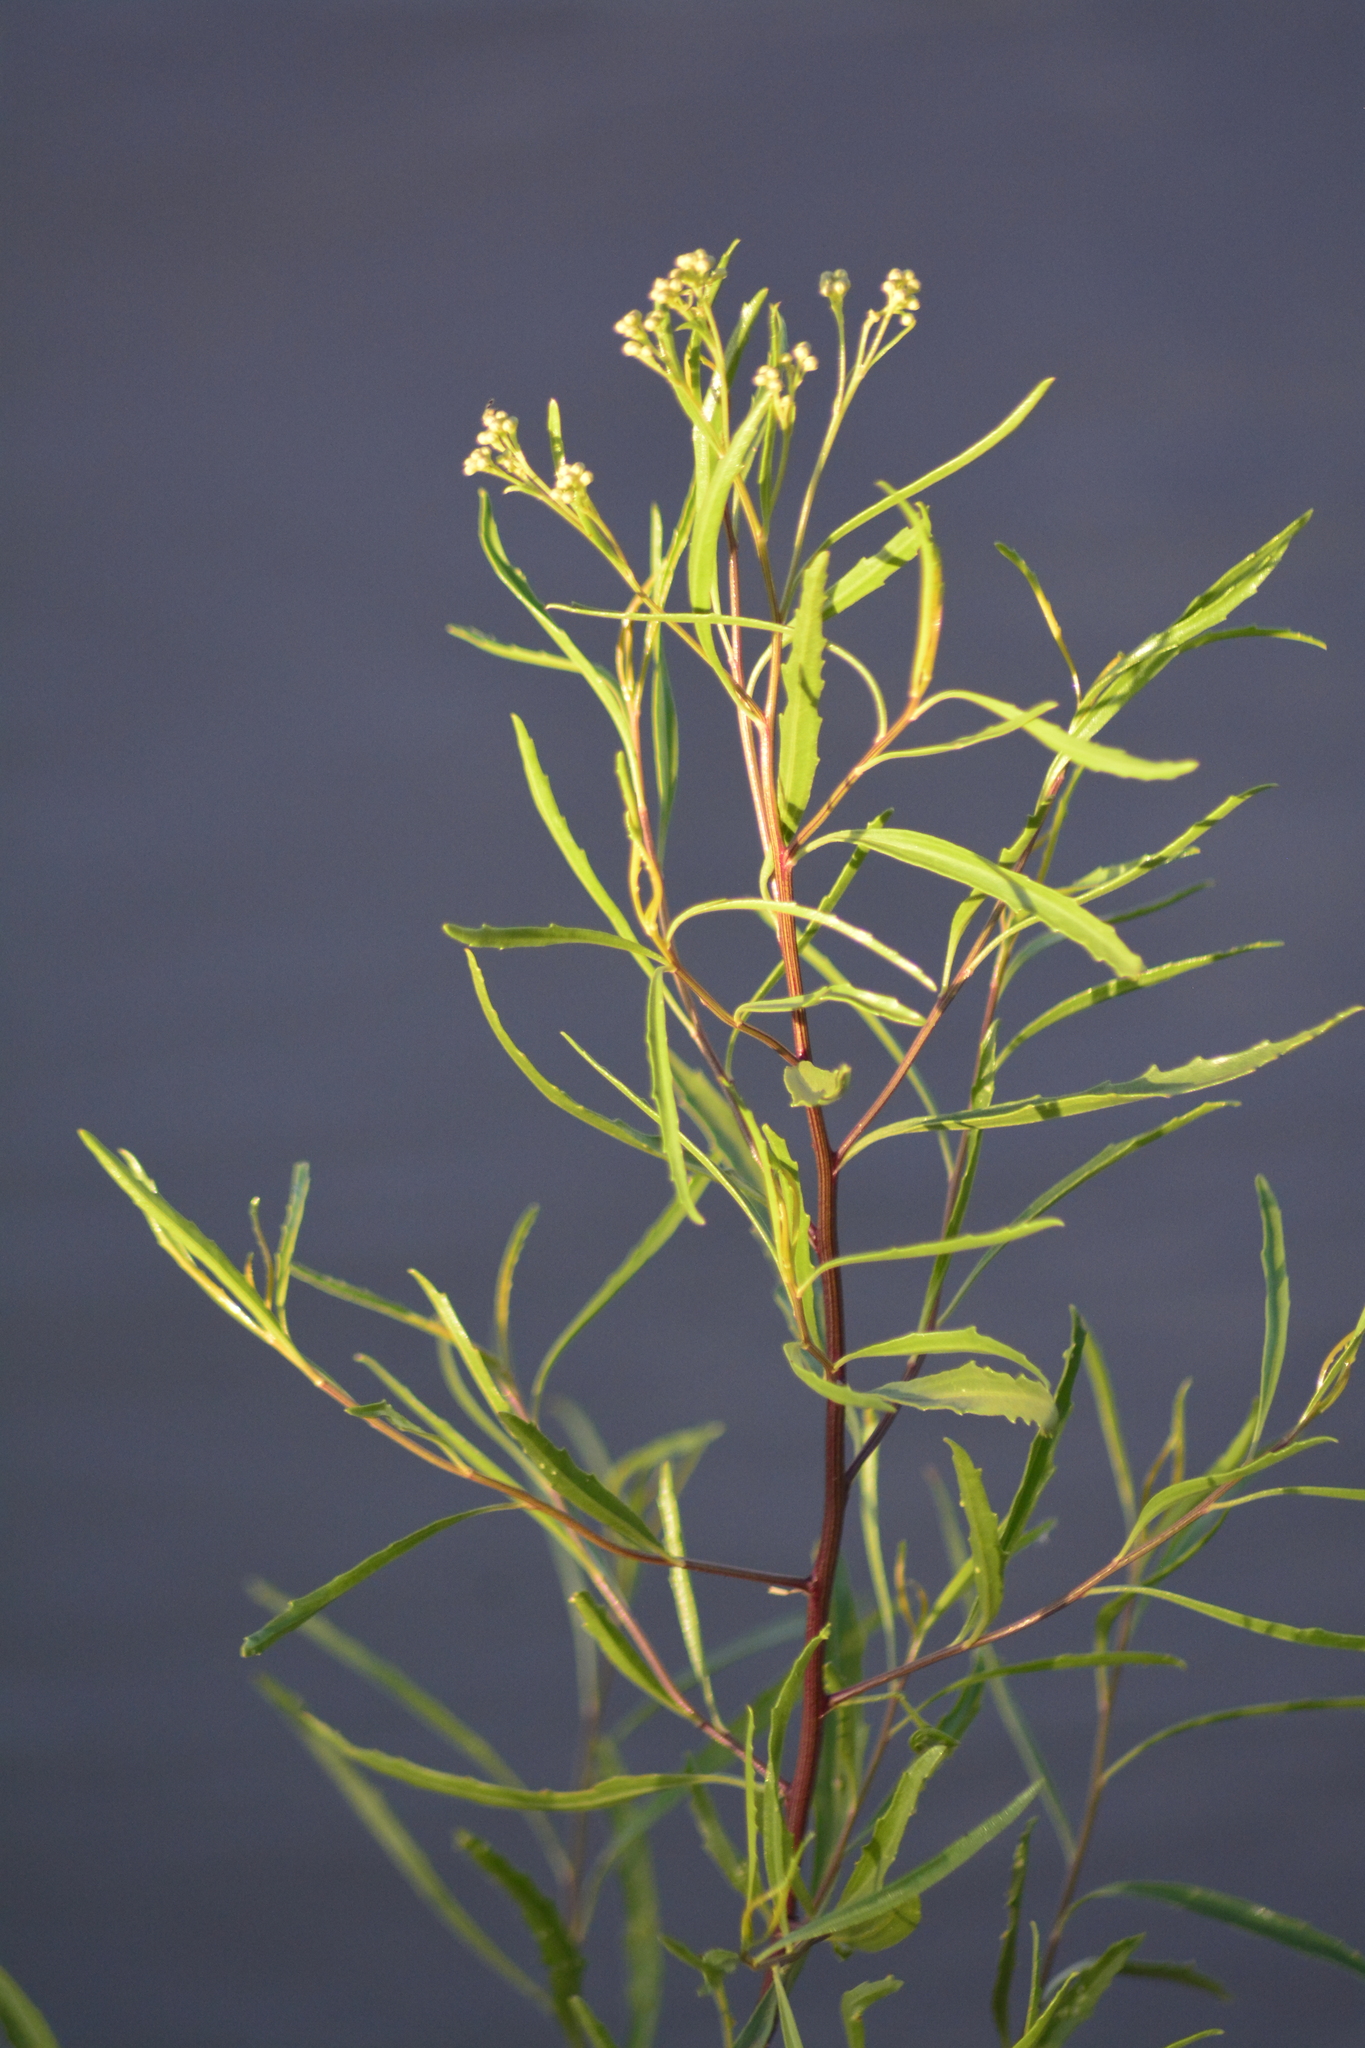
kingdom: Plantae
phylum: Tracheophyta
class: Magnoliopsida
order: Asterales
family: Asteraceae
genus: Baccharis
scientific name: Baccharis salicifolia
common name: Sticky baccharis
